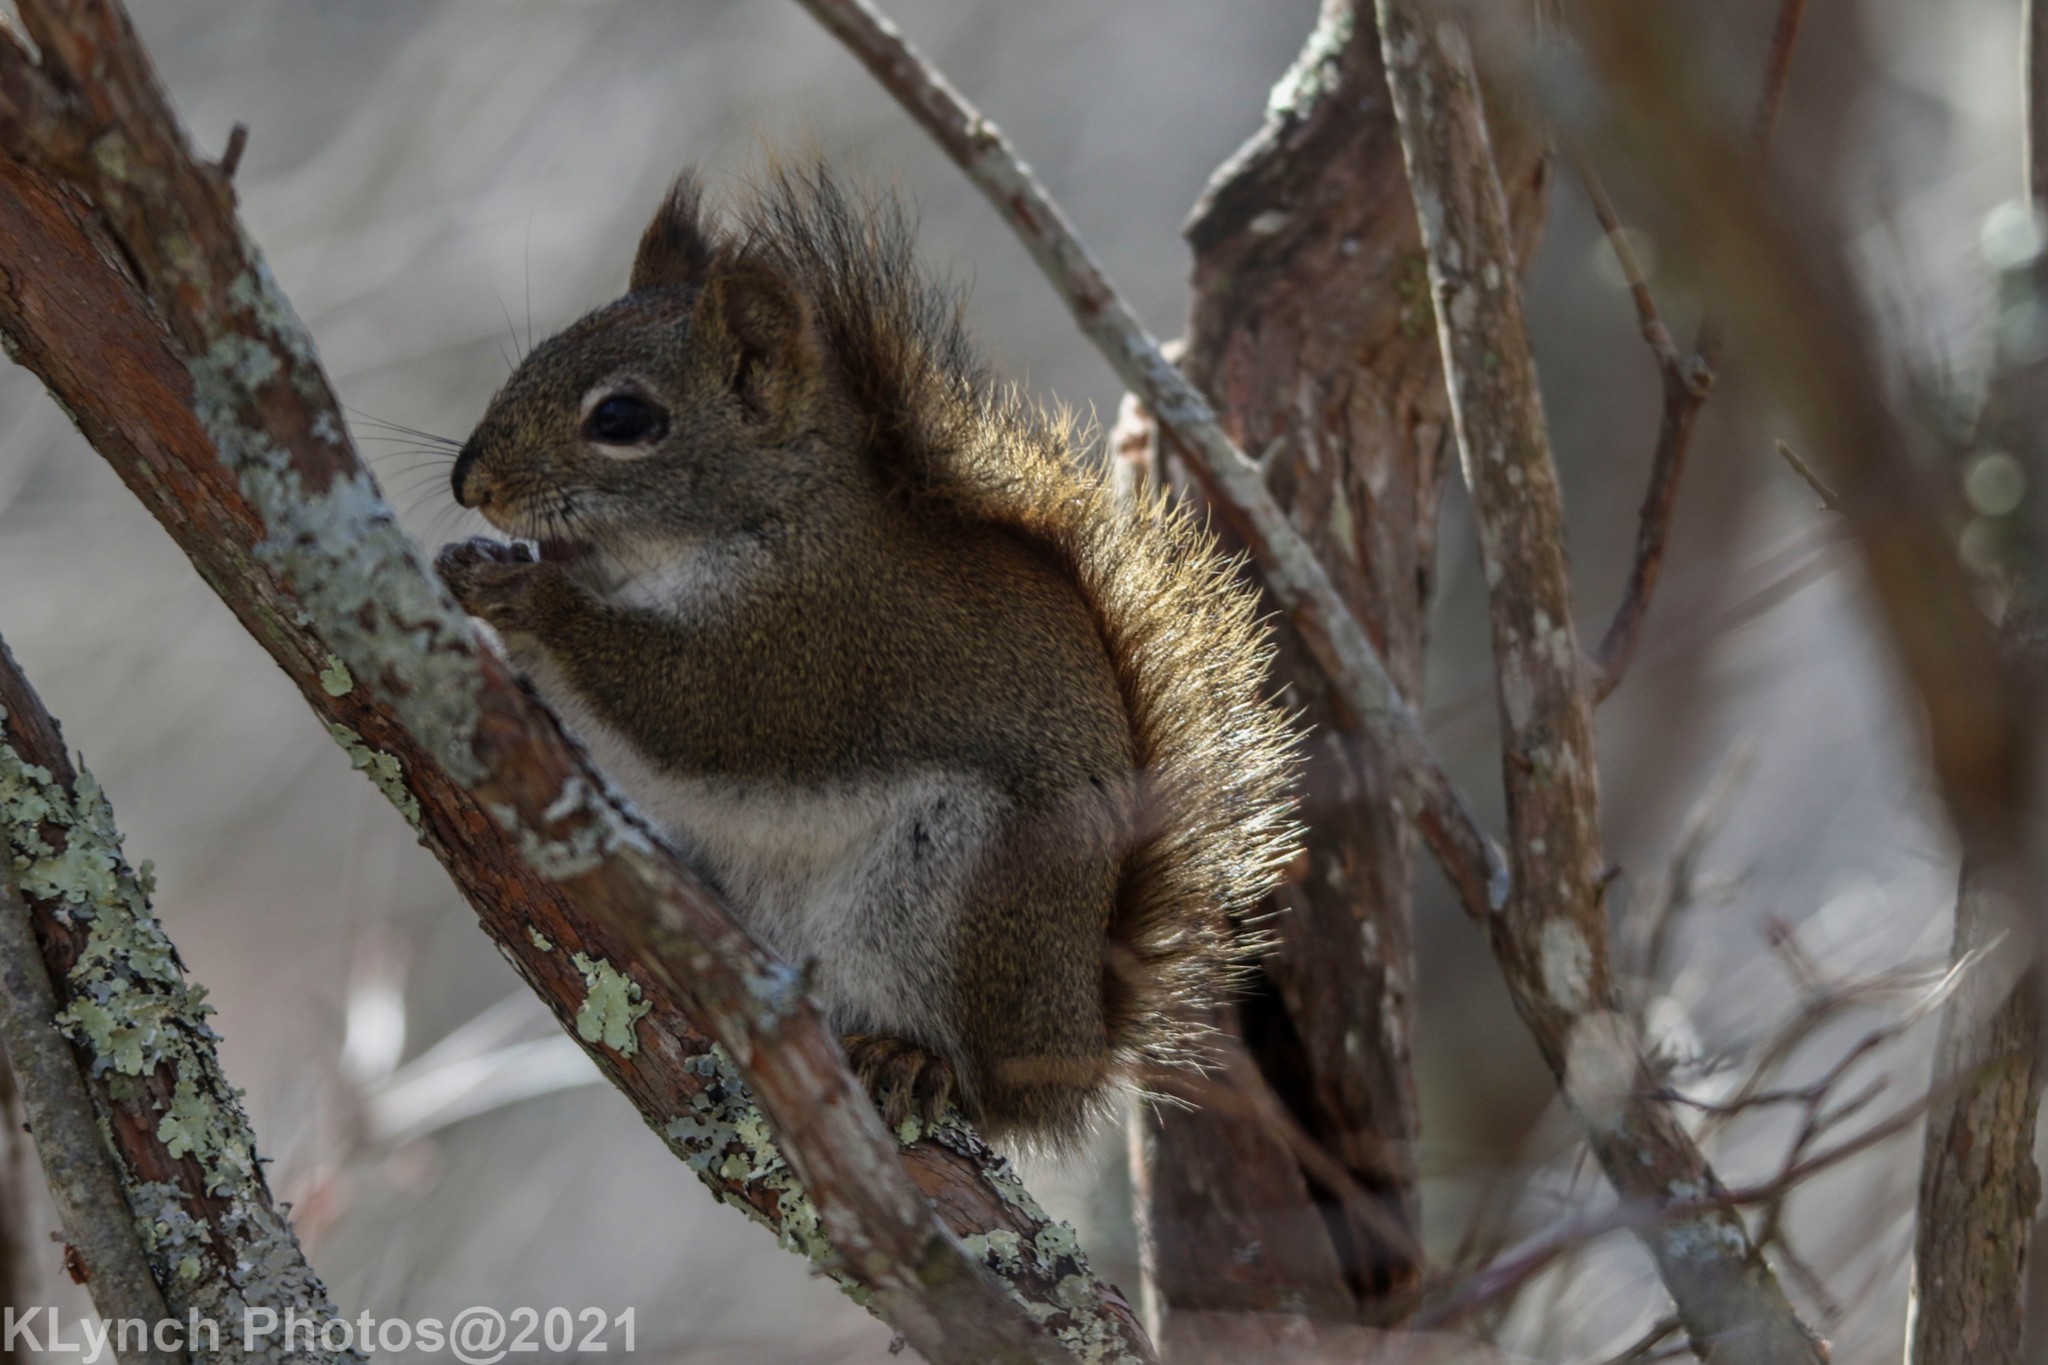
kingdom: Animalia
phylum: Chordata
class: Mammalia
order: Rodentia
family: Sciuridae
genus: Tamiasciurus
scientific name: Tamiasciurus hudsonicus
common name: Red squirrel
